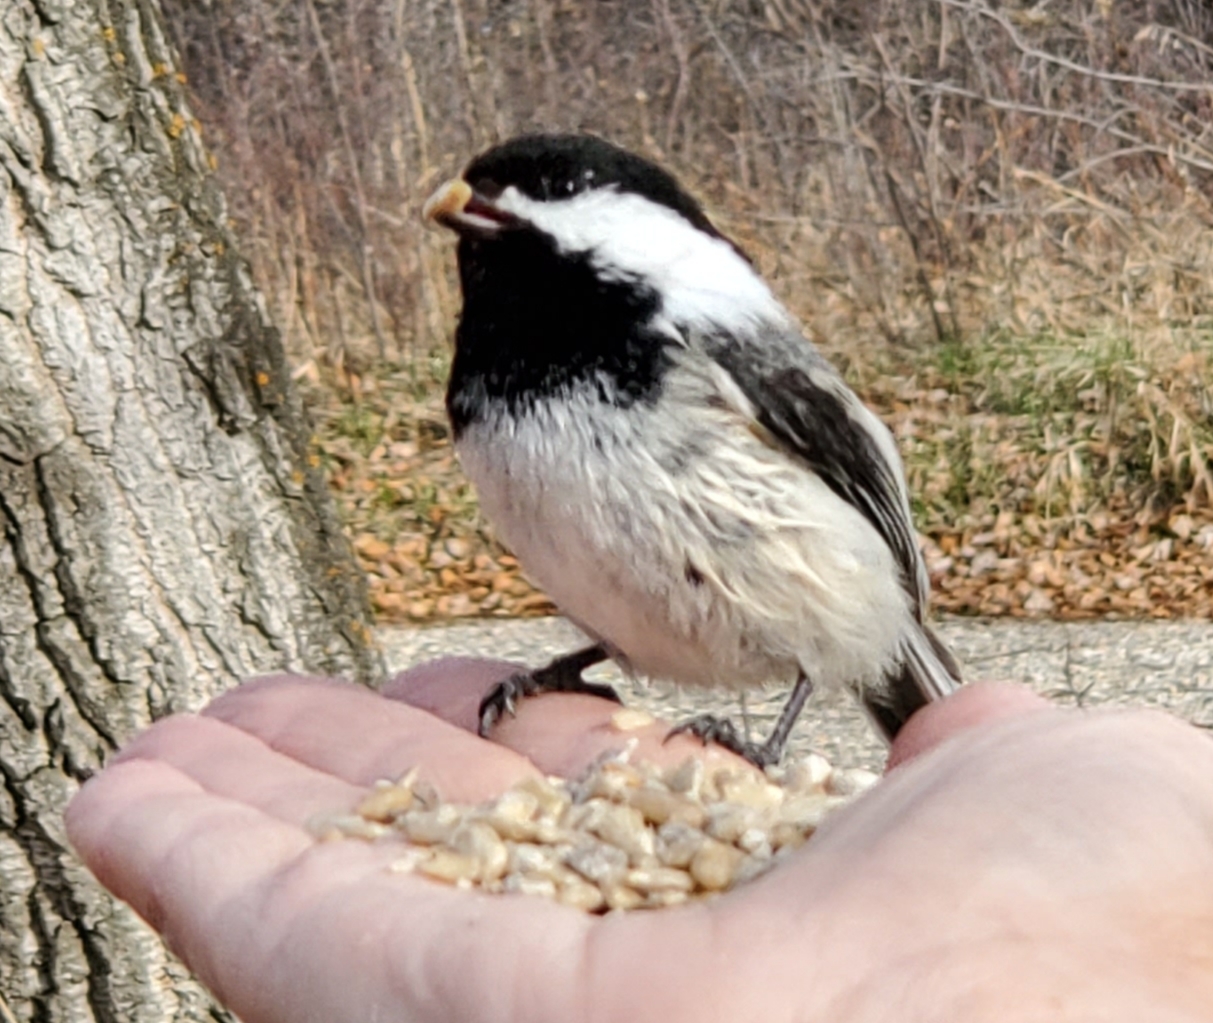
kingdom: Animalia
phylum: Chordata
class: Aves
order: Passeriformes
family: Paridae
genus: Poecile
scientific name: Poecile atricapillus
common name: Black-capped chickadee
